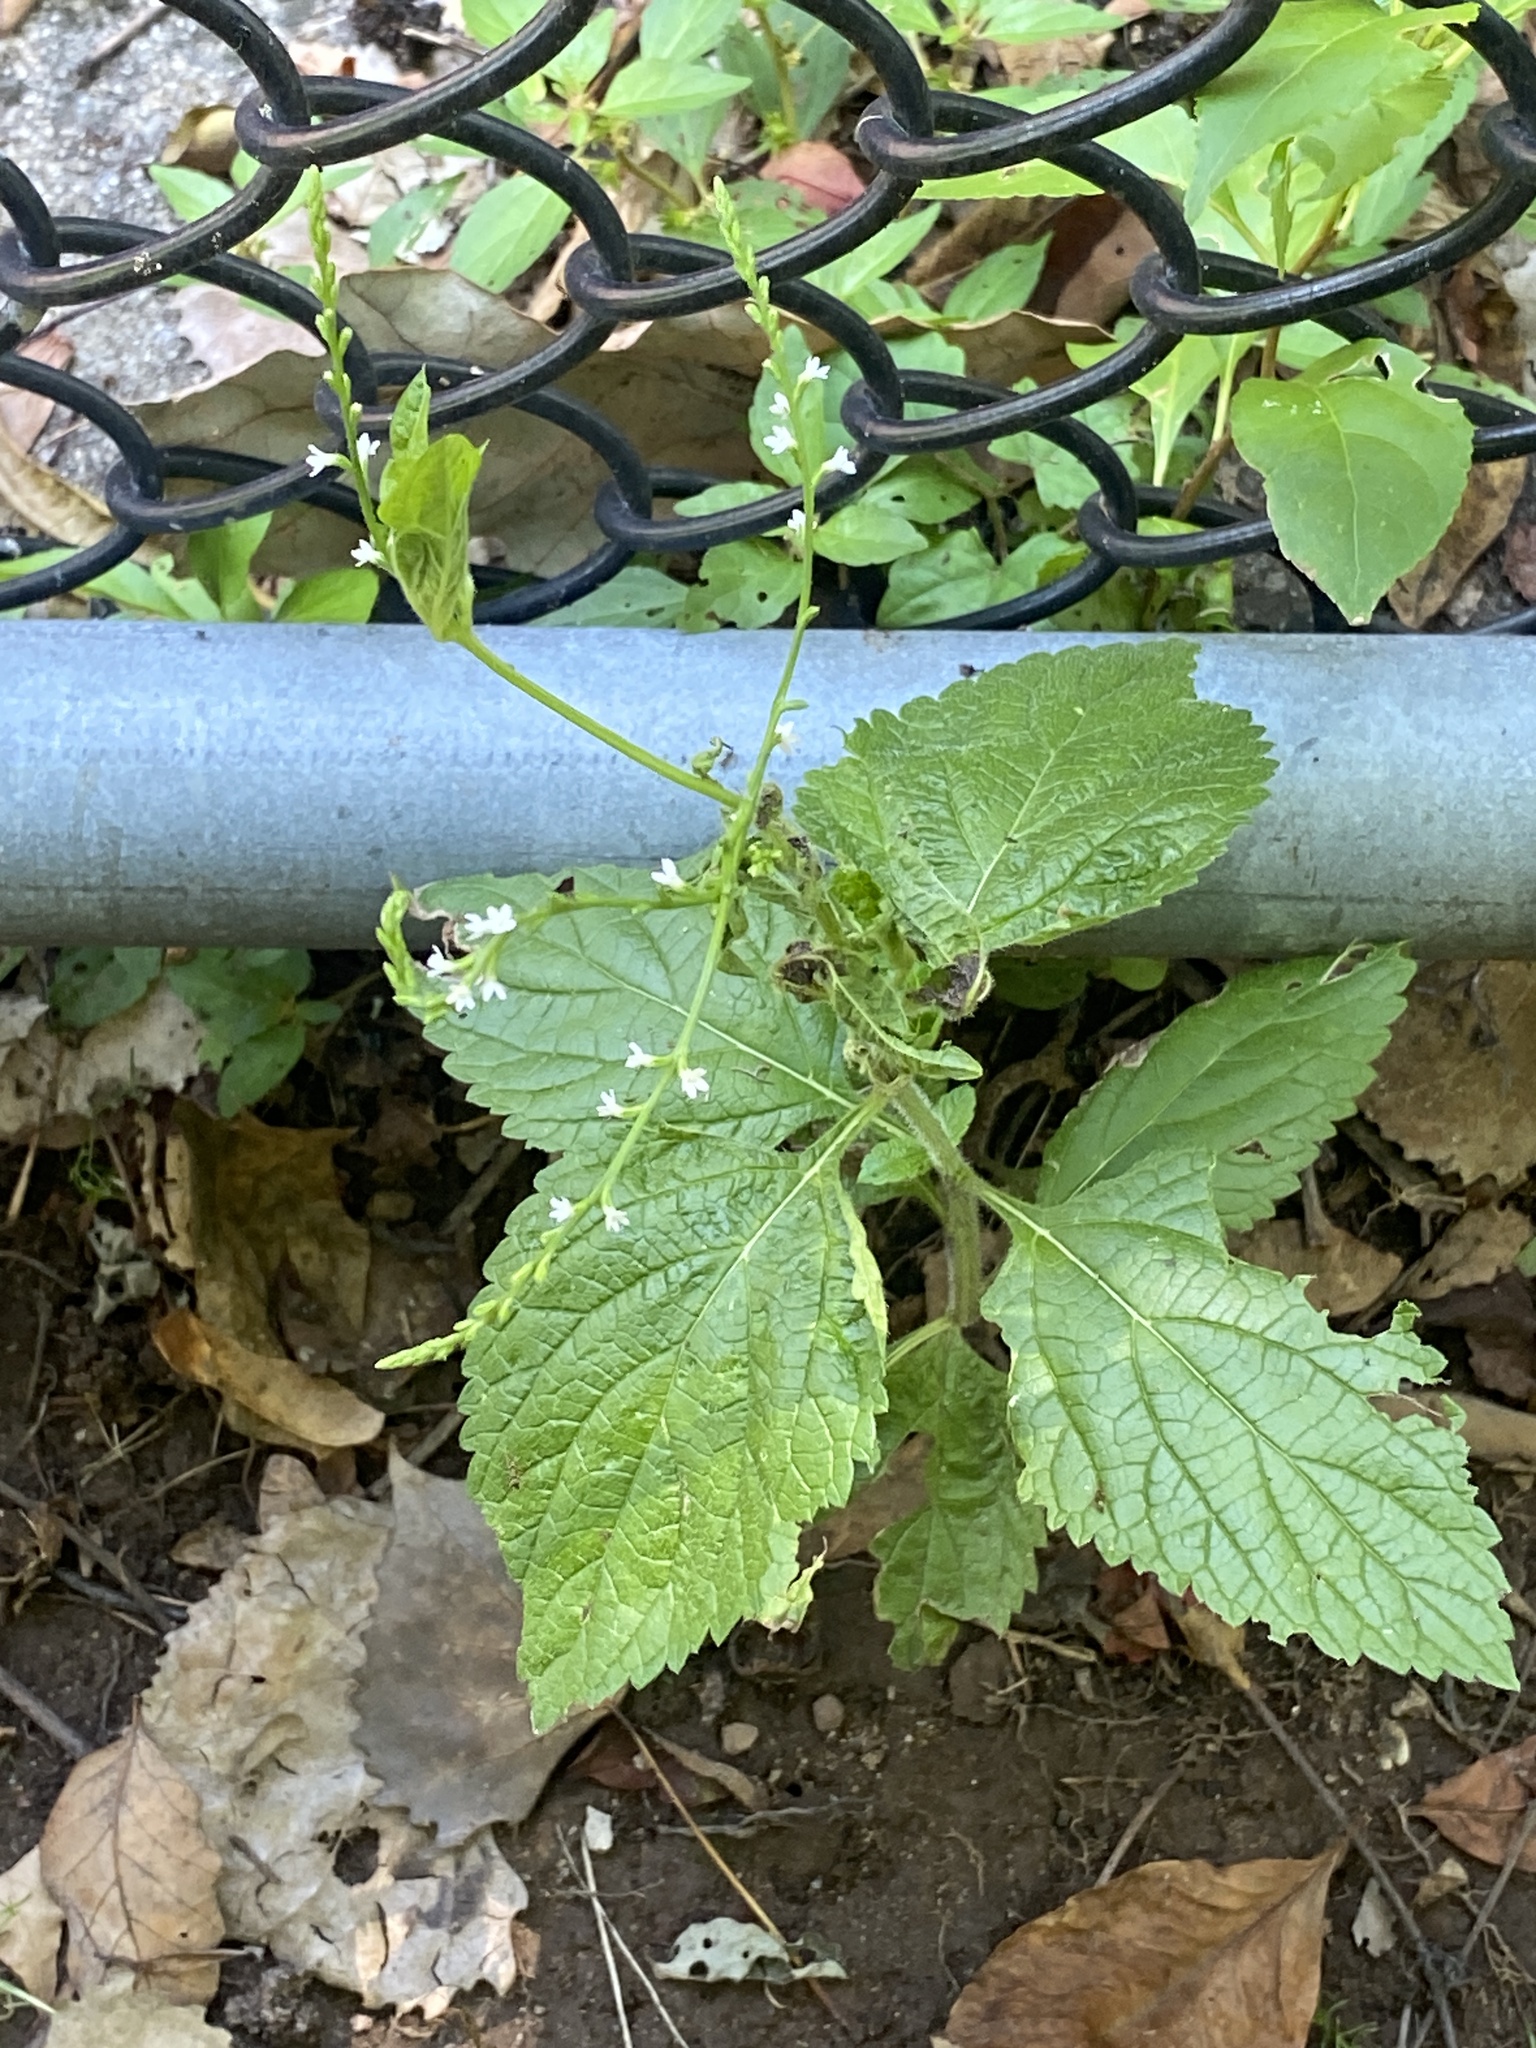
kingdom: Plantae
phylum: Tracheophyta
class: Magnoliopsida
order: Lamiales
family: Verbenaceae
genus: Verbena
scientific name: Verbena urticifolia
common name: Nettle-leaved vervain
